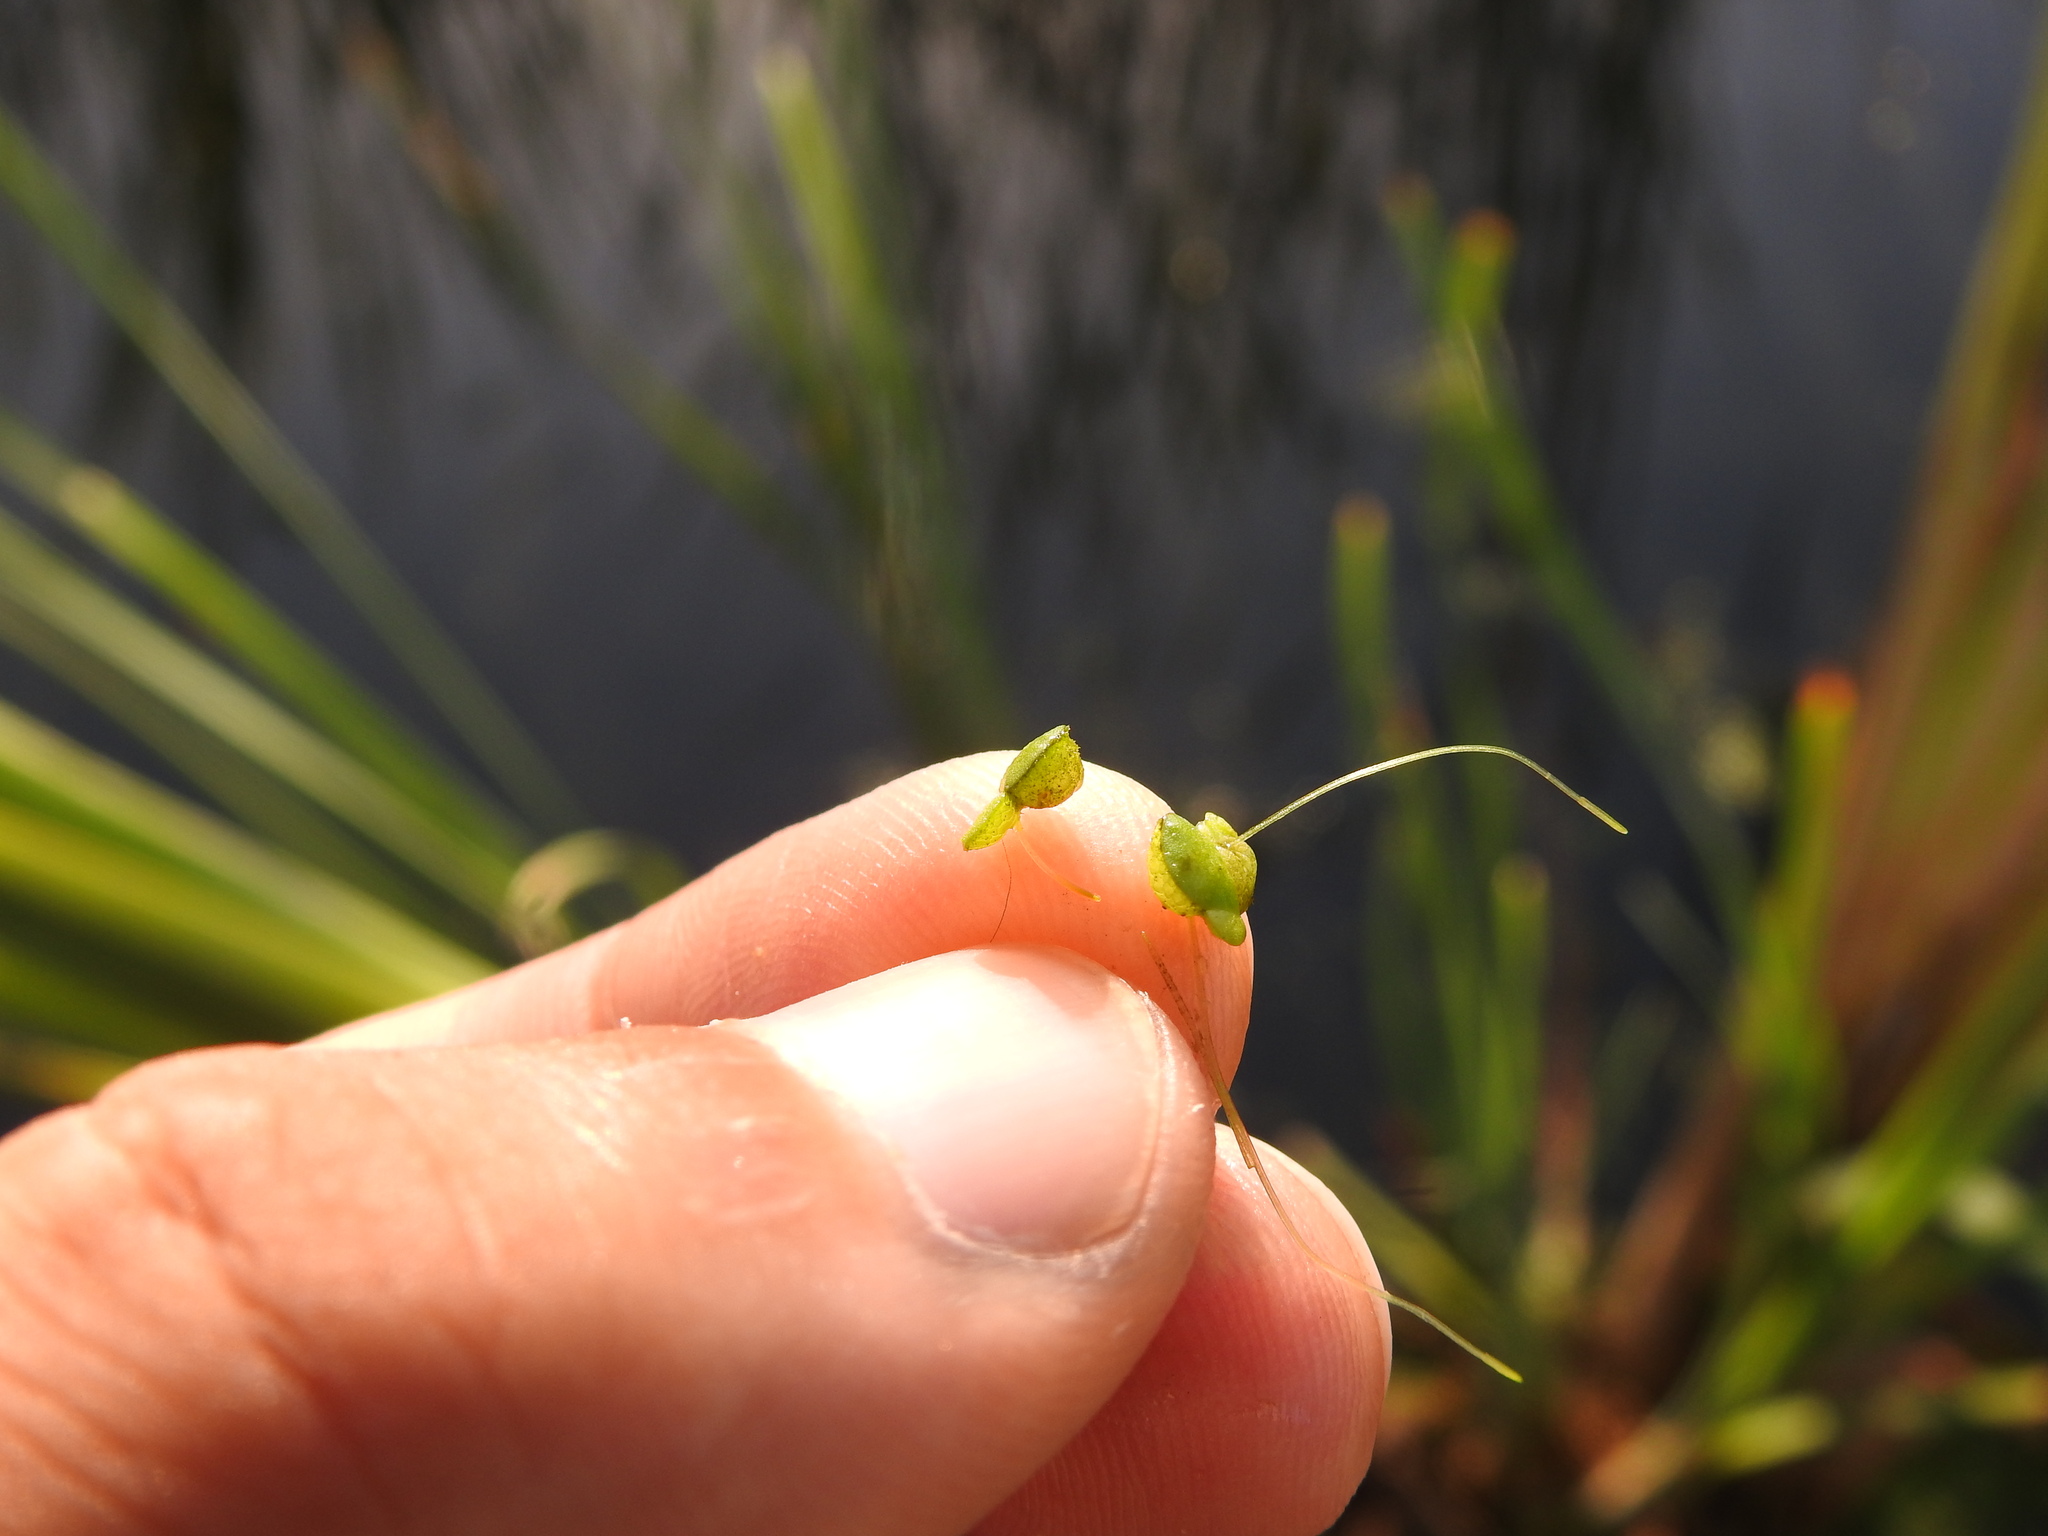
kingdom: Plantae
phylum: Tracheophyta
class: Liliopsida
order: Alismatales
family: Araceae
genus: Lemna
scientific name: Lemna gibba
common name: Fat duckweed
